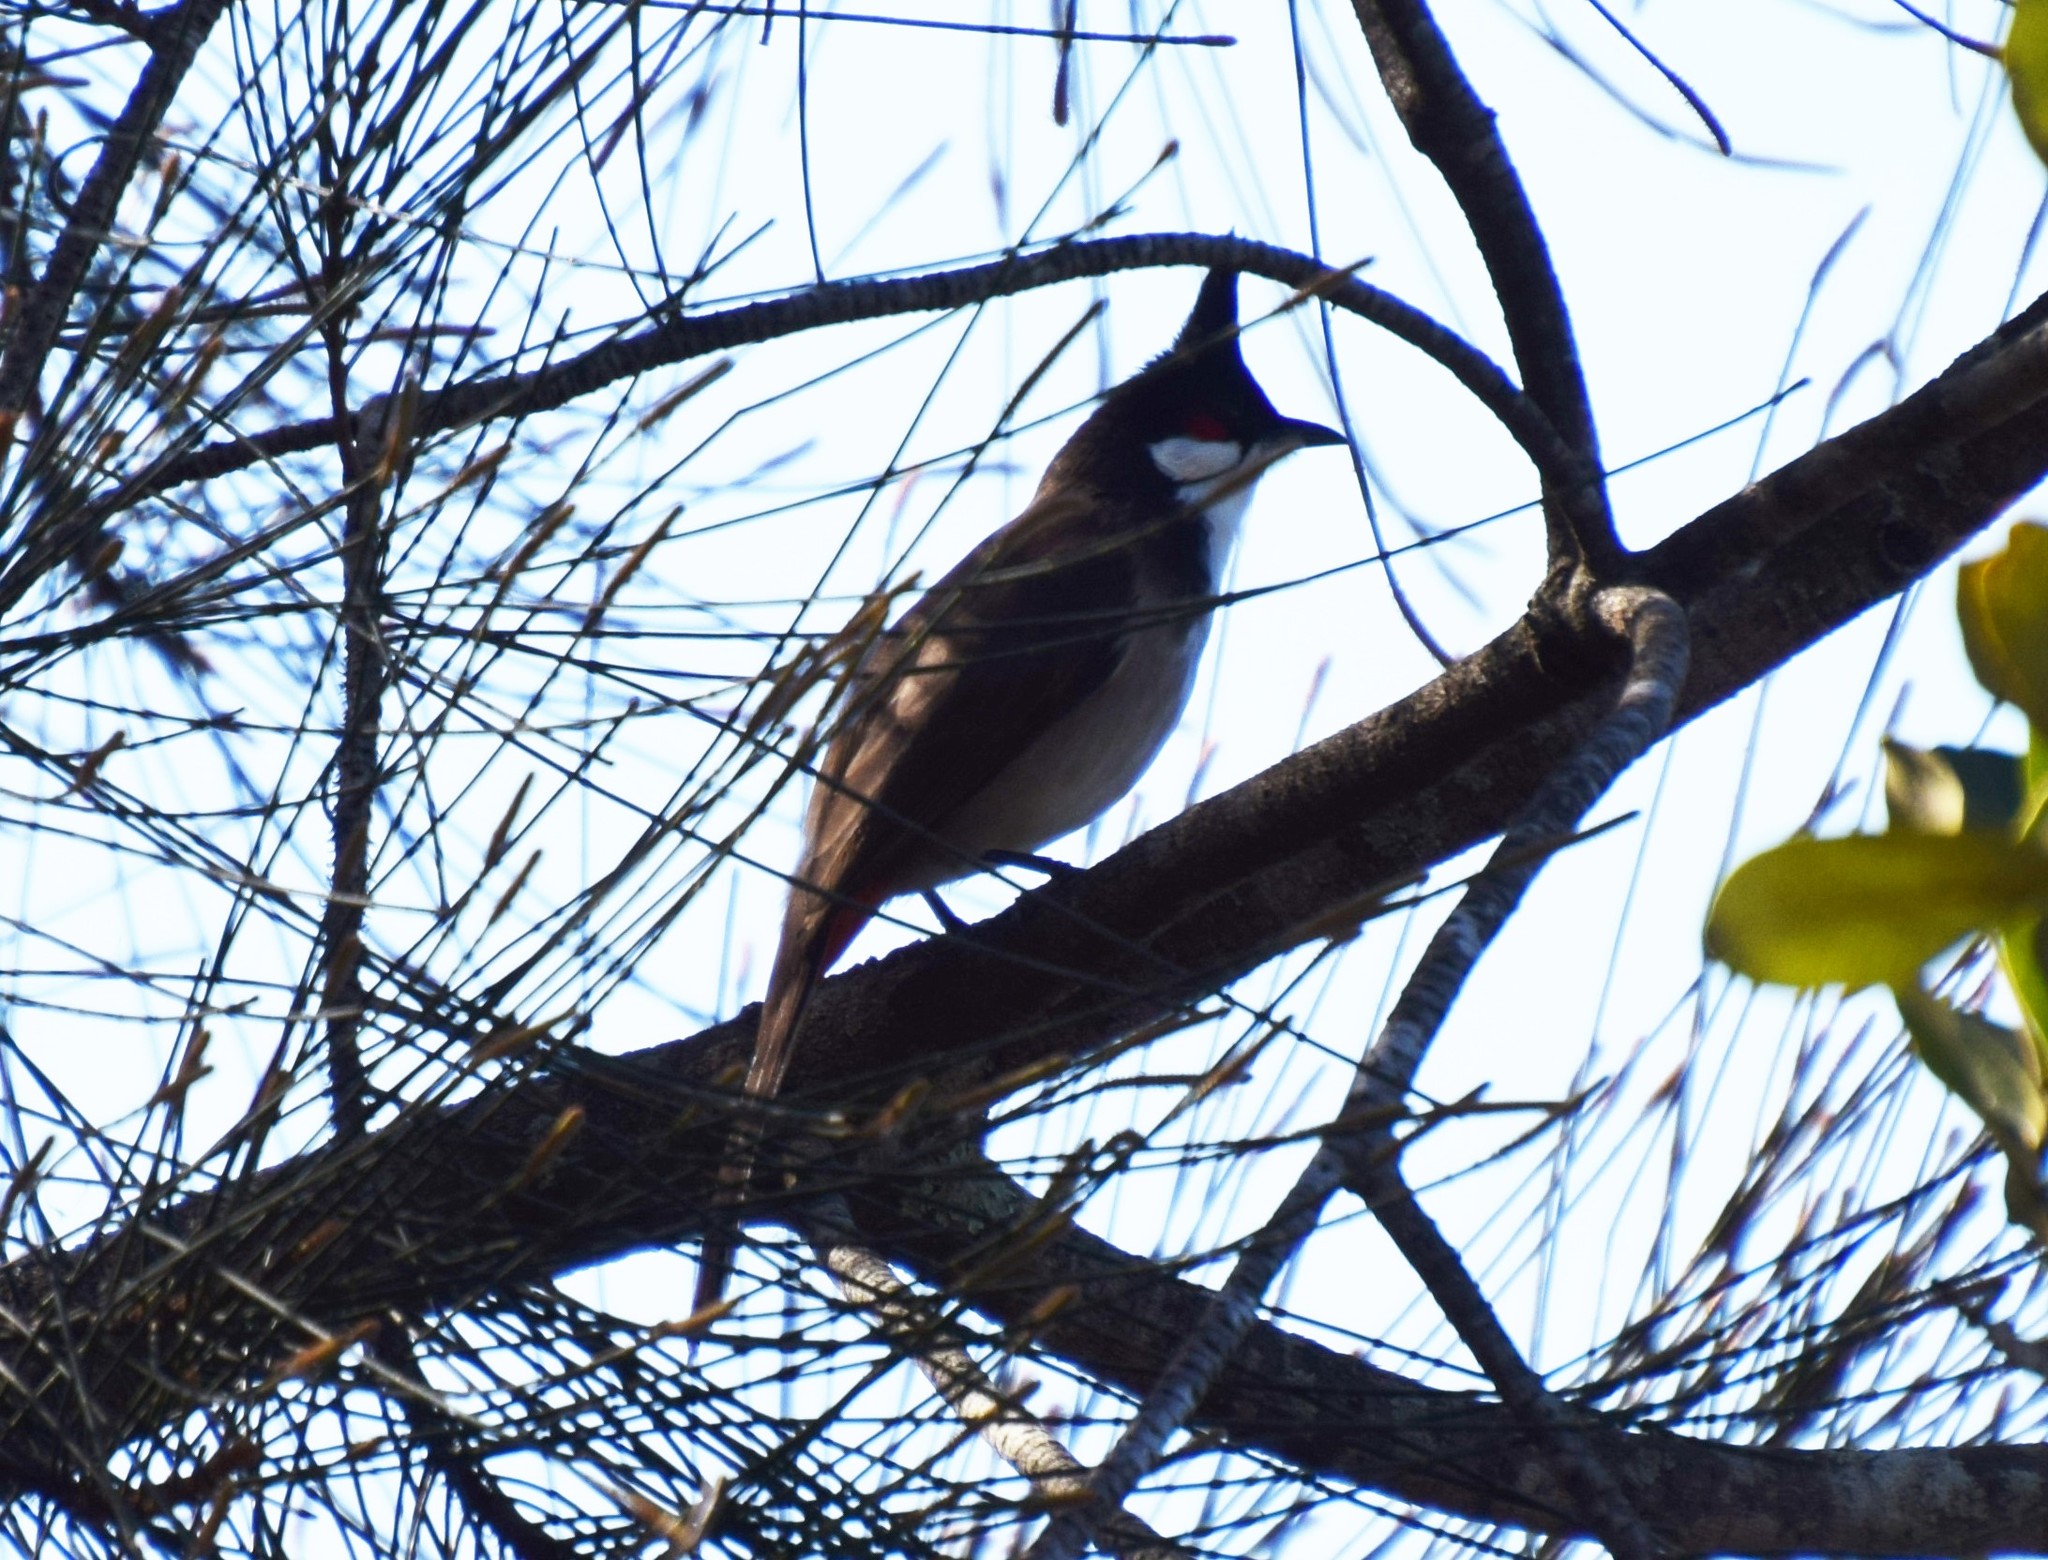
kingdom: Animalia
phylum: Chordata
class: Aves
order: Passeriformes
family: Pycnonotidae
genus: Pycnonotus
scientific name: Pycnonotus jocosus
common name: Red-whiskered bulbul
